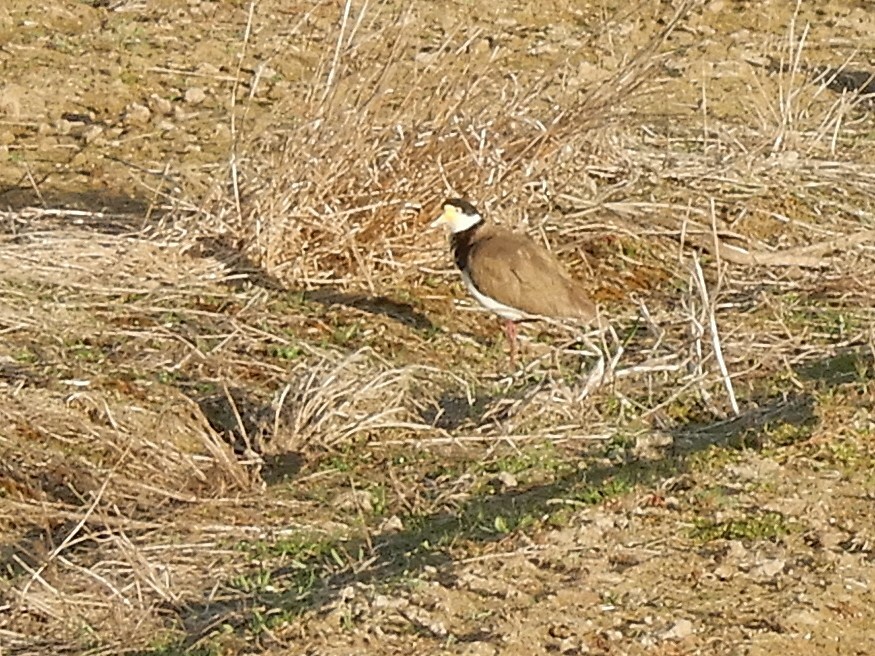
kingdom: Animalia
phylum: Chordata
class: Aves
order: Charadriiformes
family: Charadriidae
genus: Vanellus
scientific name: Vanellus miles
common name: Masked lapwing
